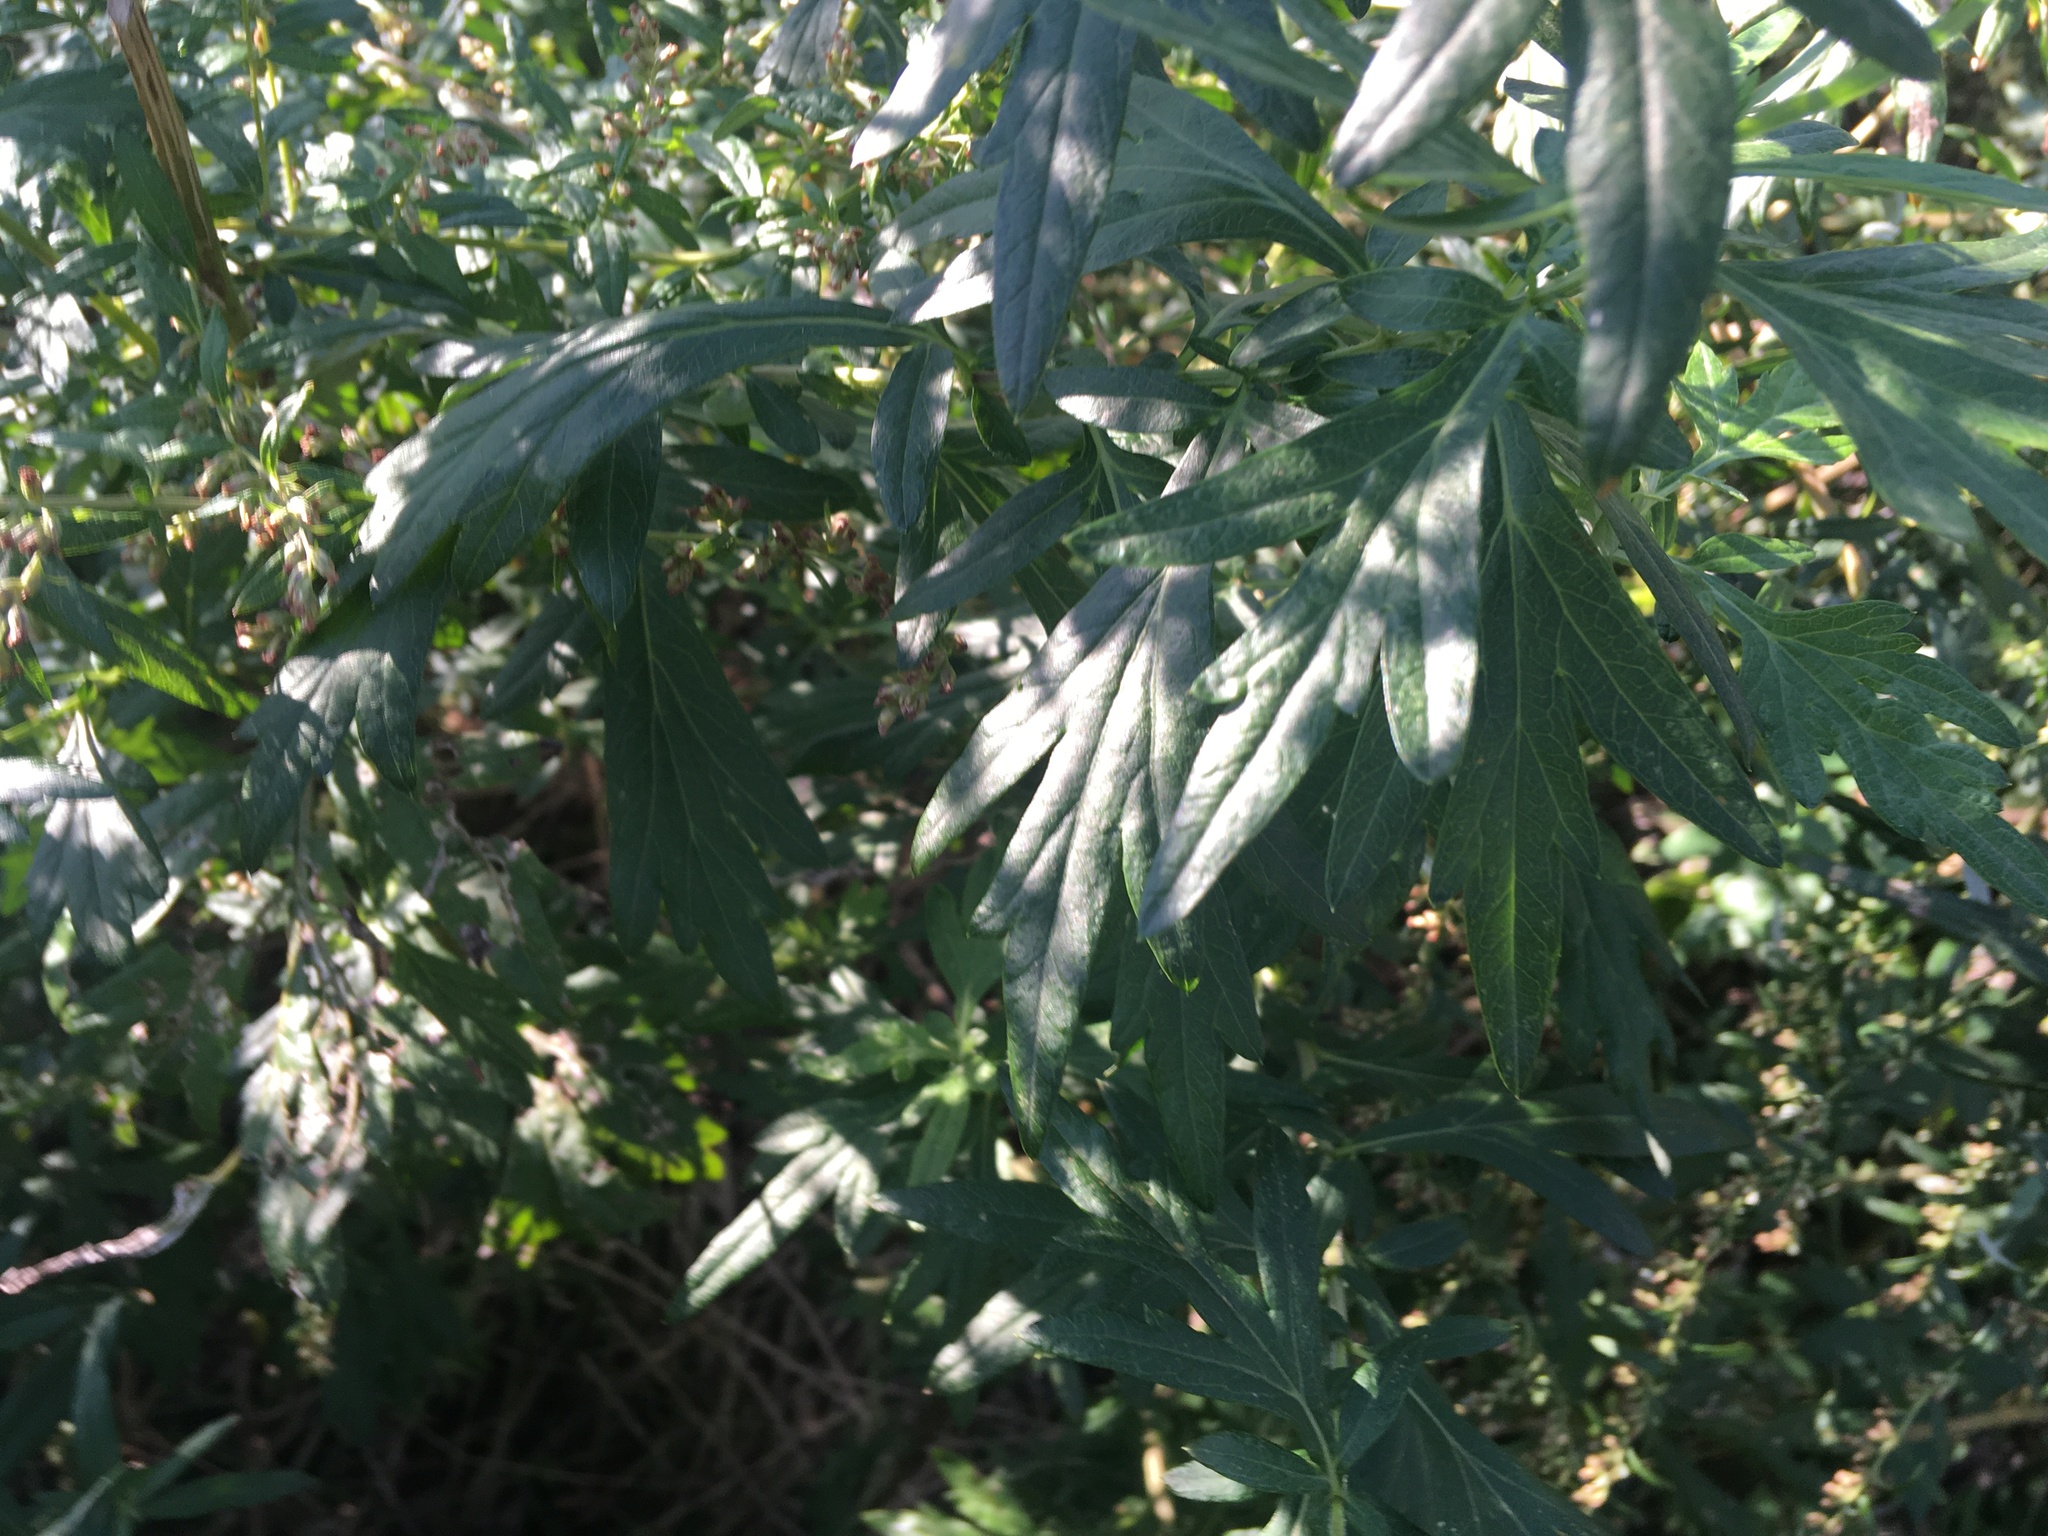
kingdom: Plantae
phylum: Tracheophyta
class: Magnoliopsida
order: Asterales
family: Asteraceae
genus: Artemisia
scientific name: Artemisia vulgaris
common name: Mugwort
